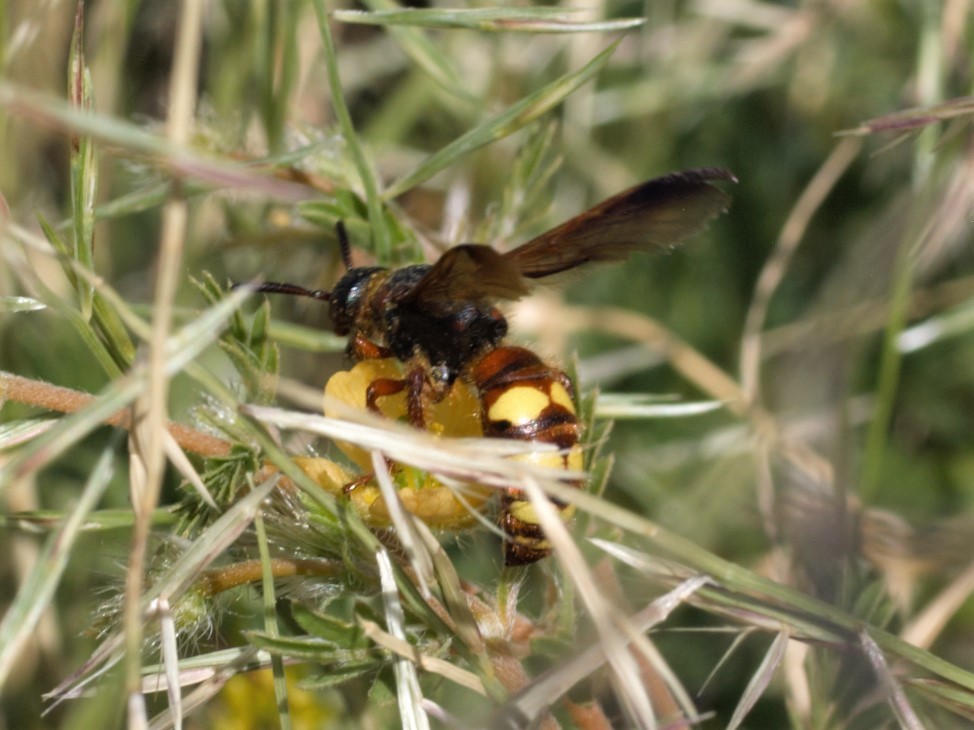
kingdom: Animalia
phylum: Arthropoda
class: Insecta
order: Hymenoptera
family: Scoliidae
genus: Scolia
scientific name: Scolia nobilitata
